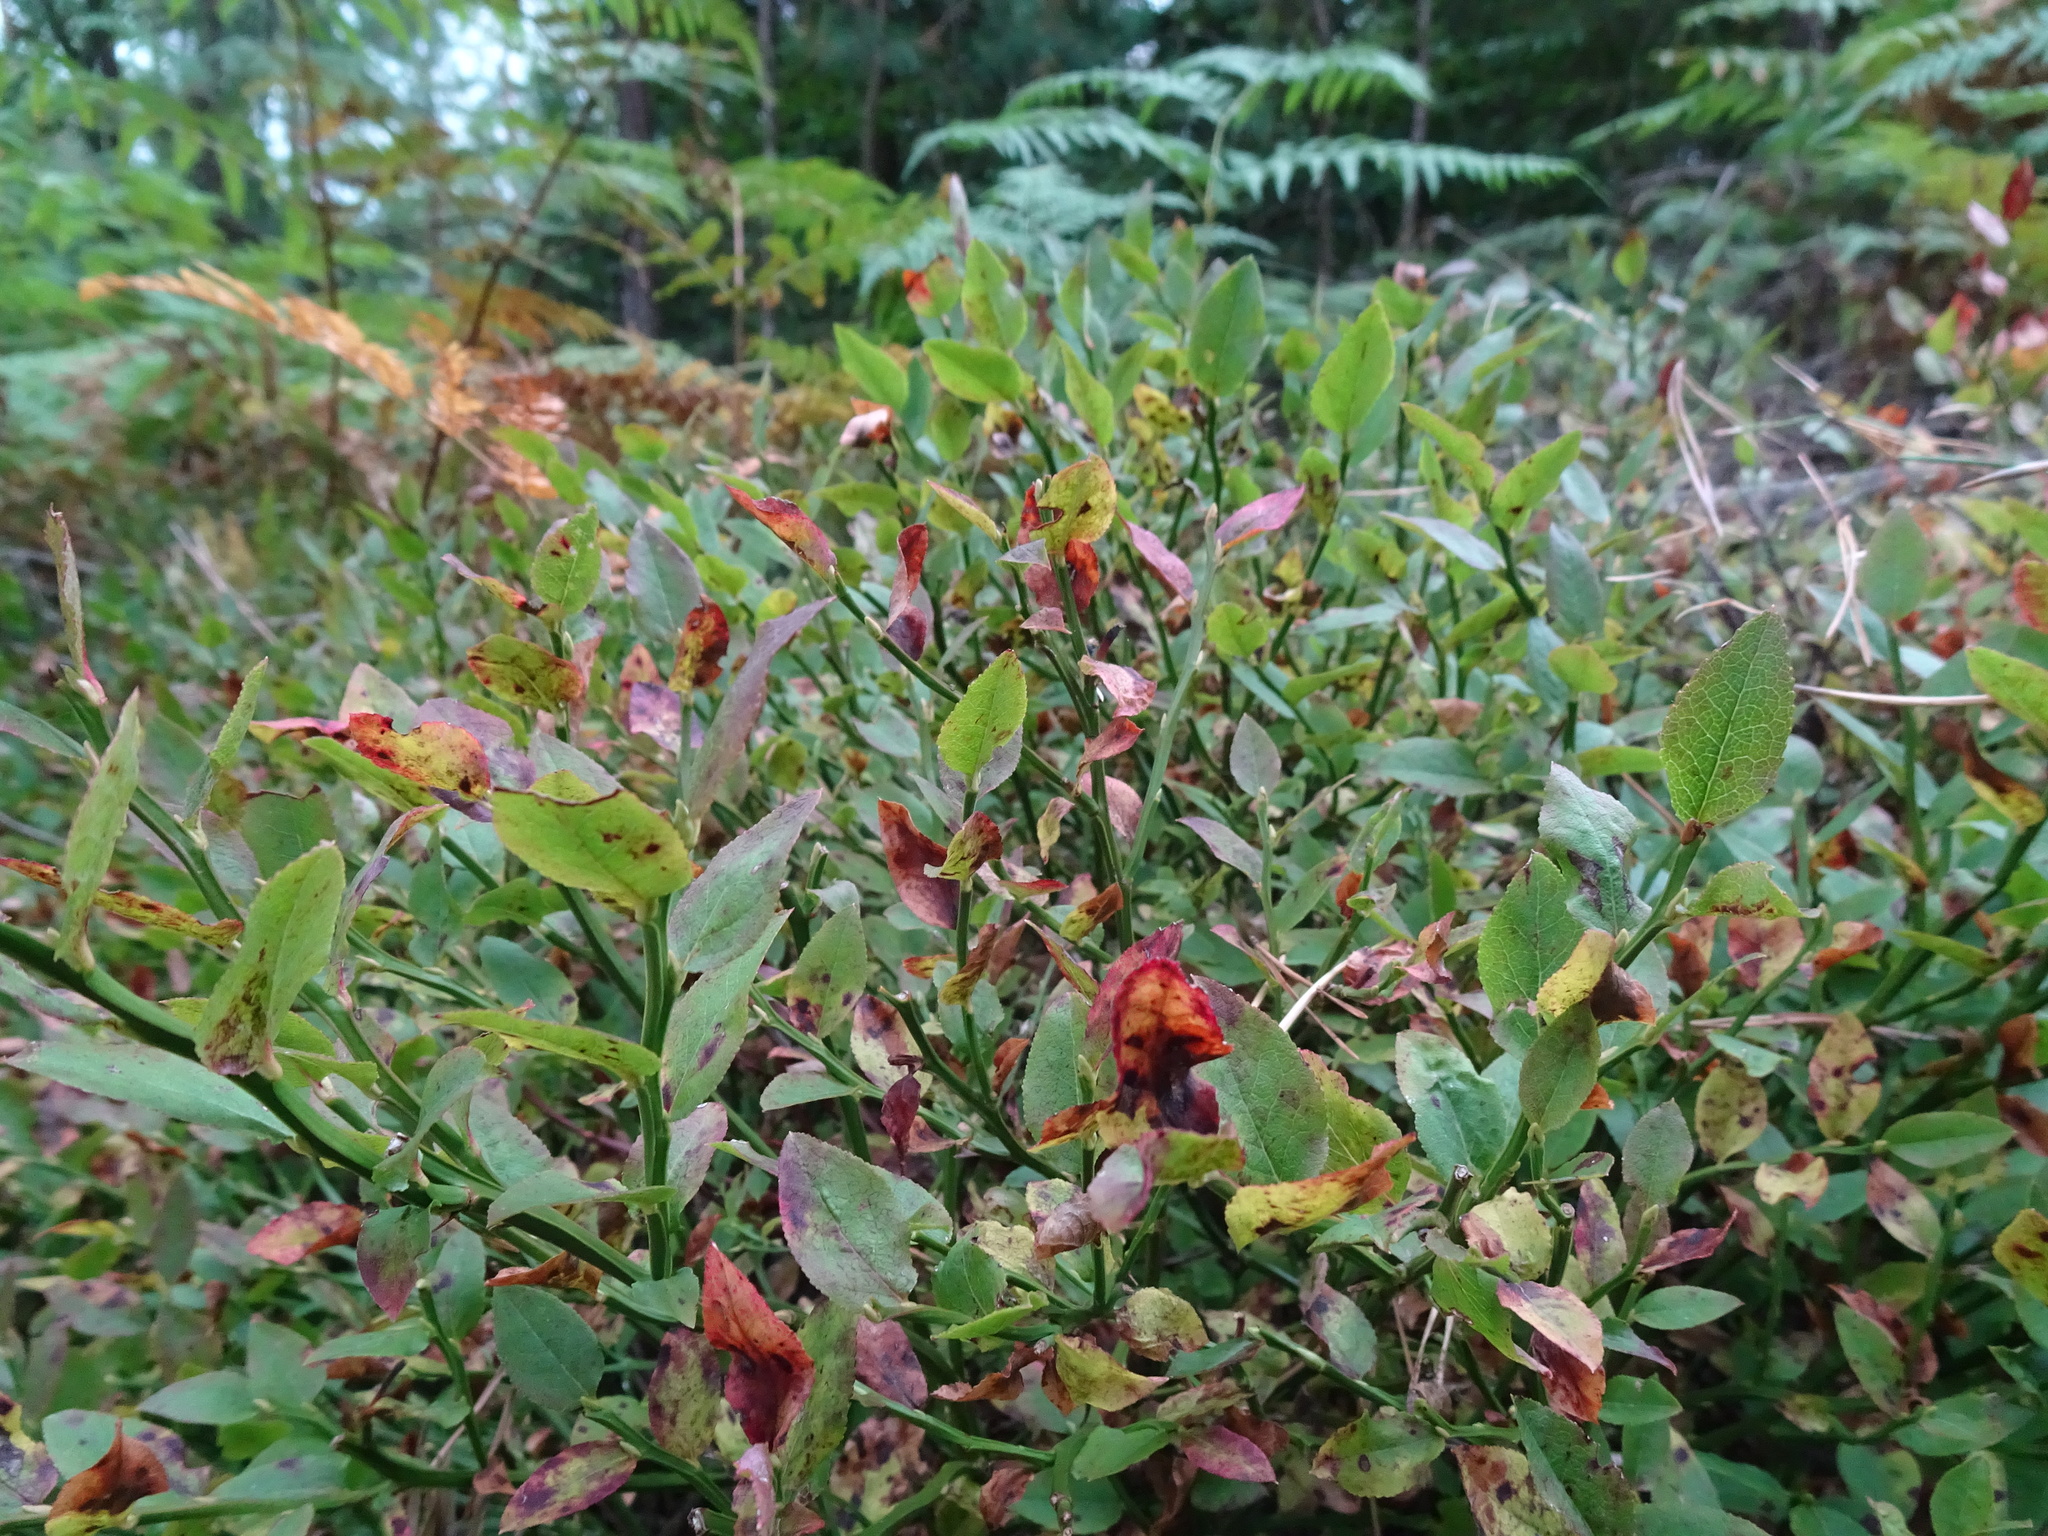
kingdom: Plantae
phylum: Tracheophyta
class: Magnoliopsida
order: Ericales
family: Ericaceae
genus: Vaccinium
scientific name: Vaccinium myrtillus
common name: Bilberry
